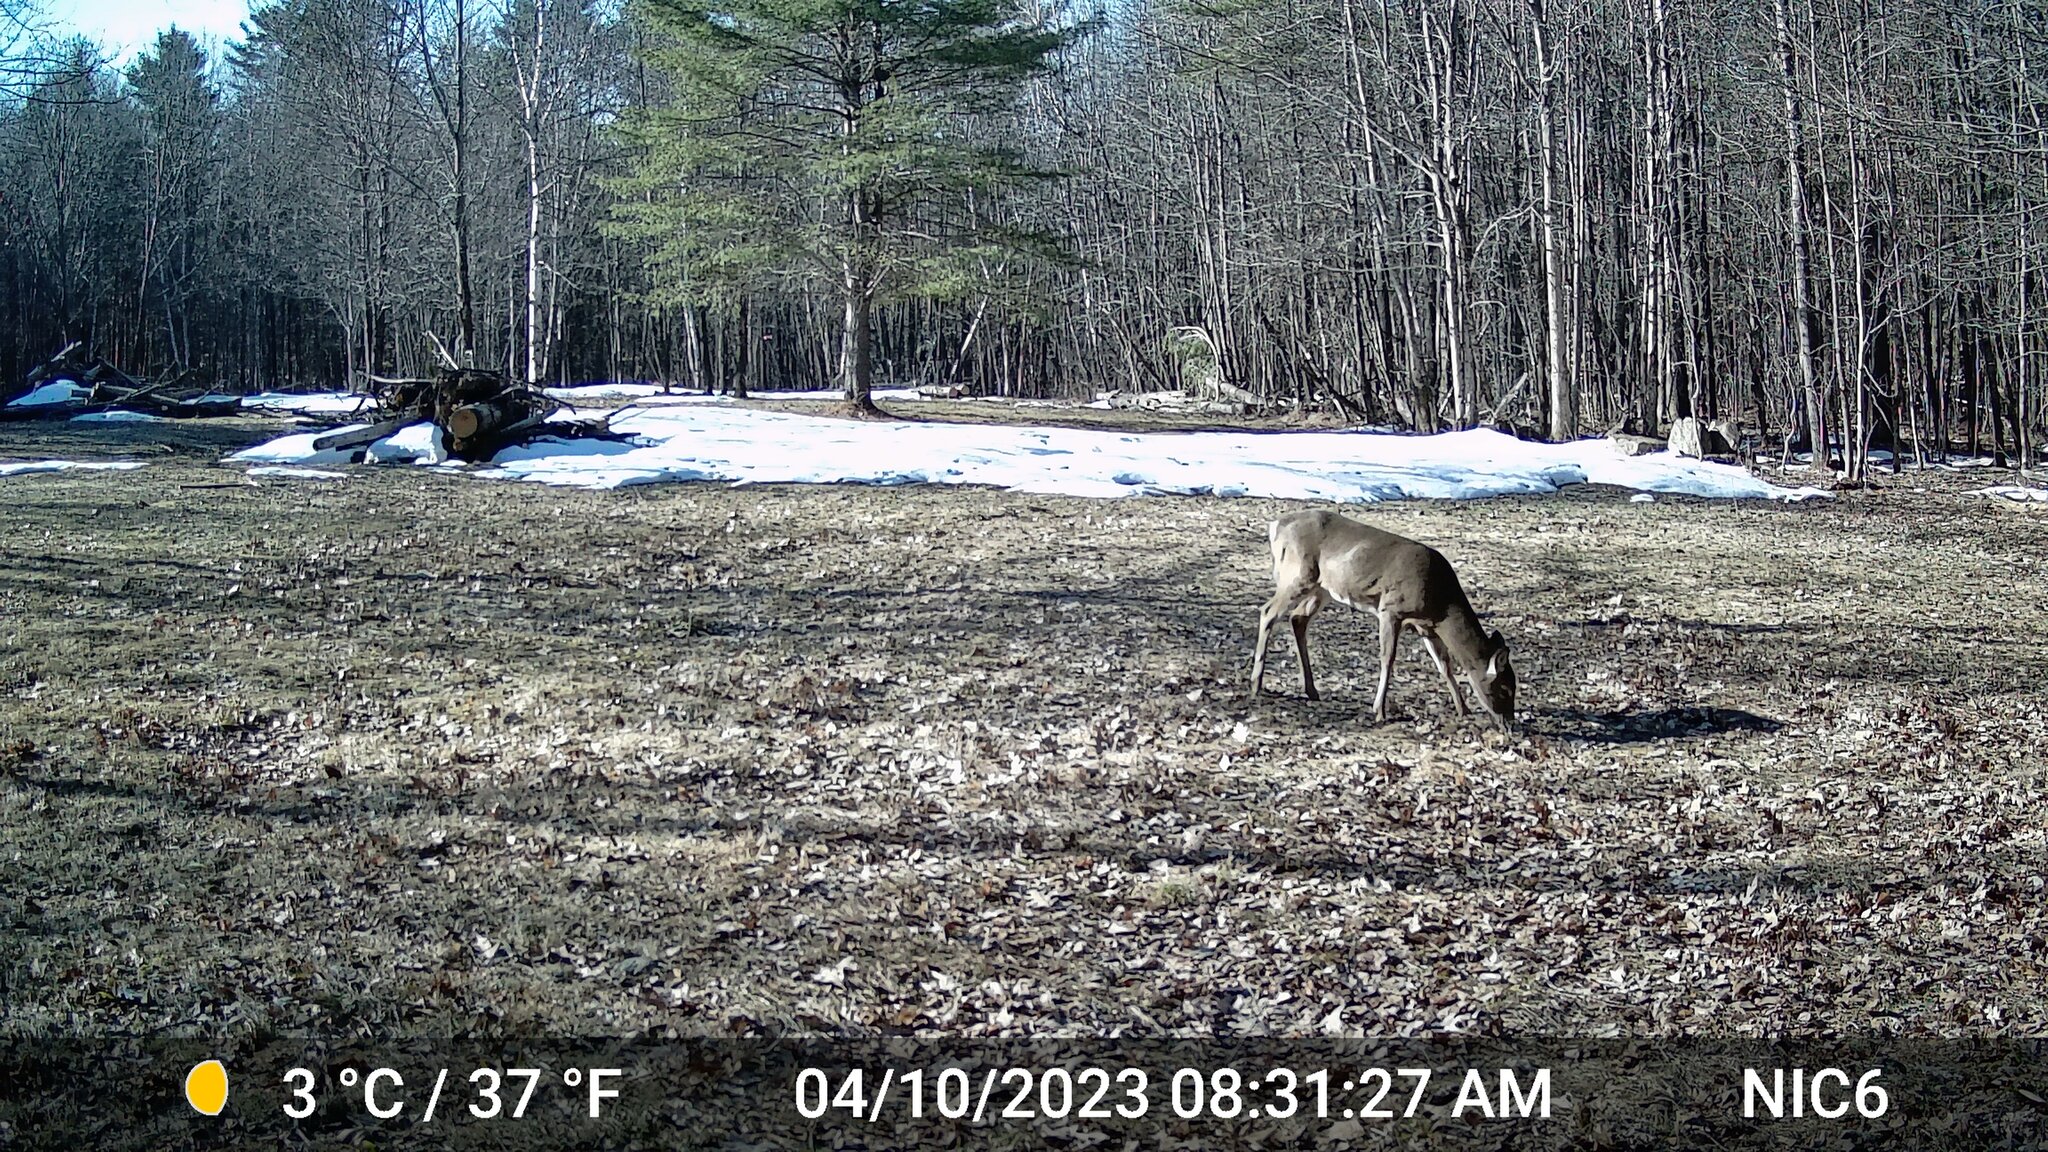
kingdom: Animalia
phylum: Chordata
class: Mammalia
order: Artiodactyla
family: Cervidae
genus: Odocoileus
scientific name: Odocoileus virginianus
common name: White-tailed deer
